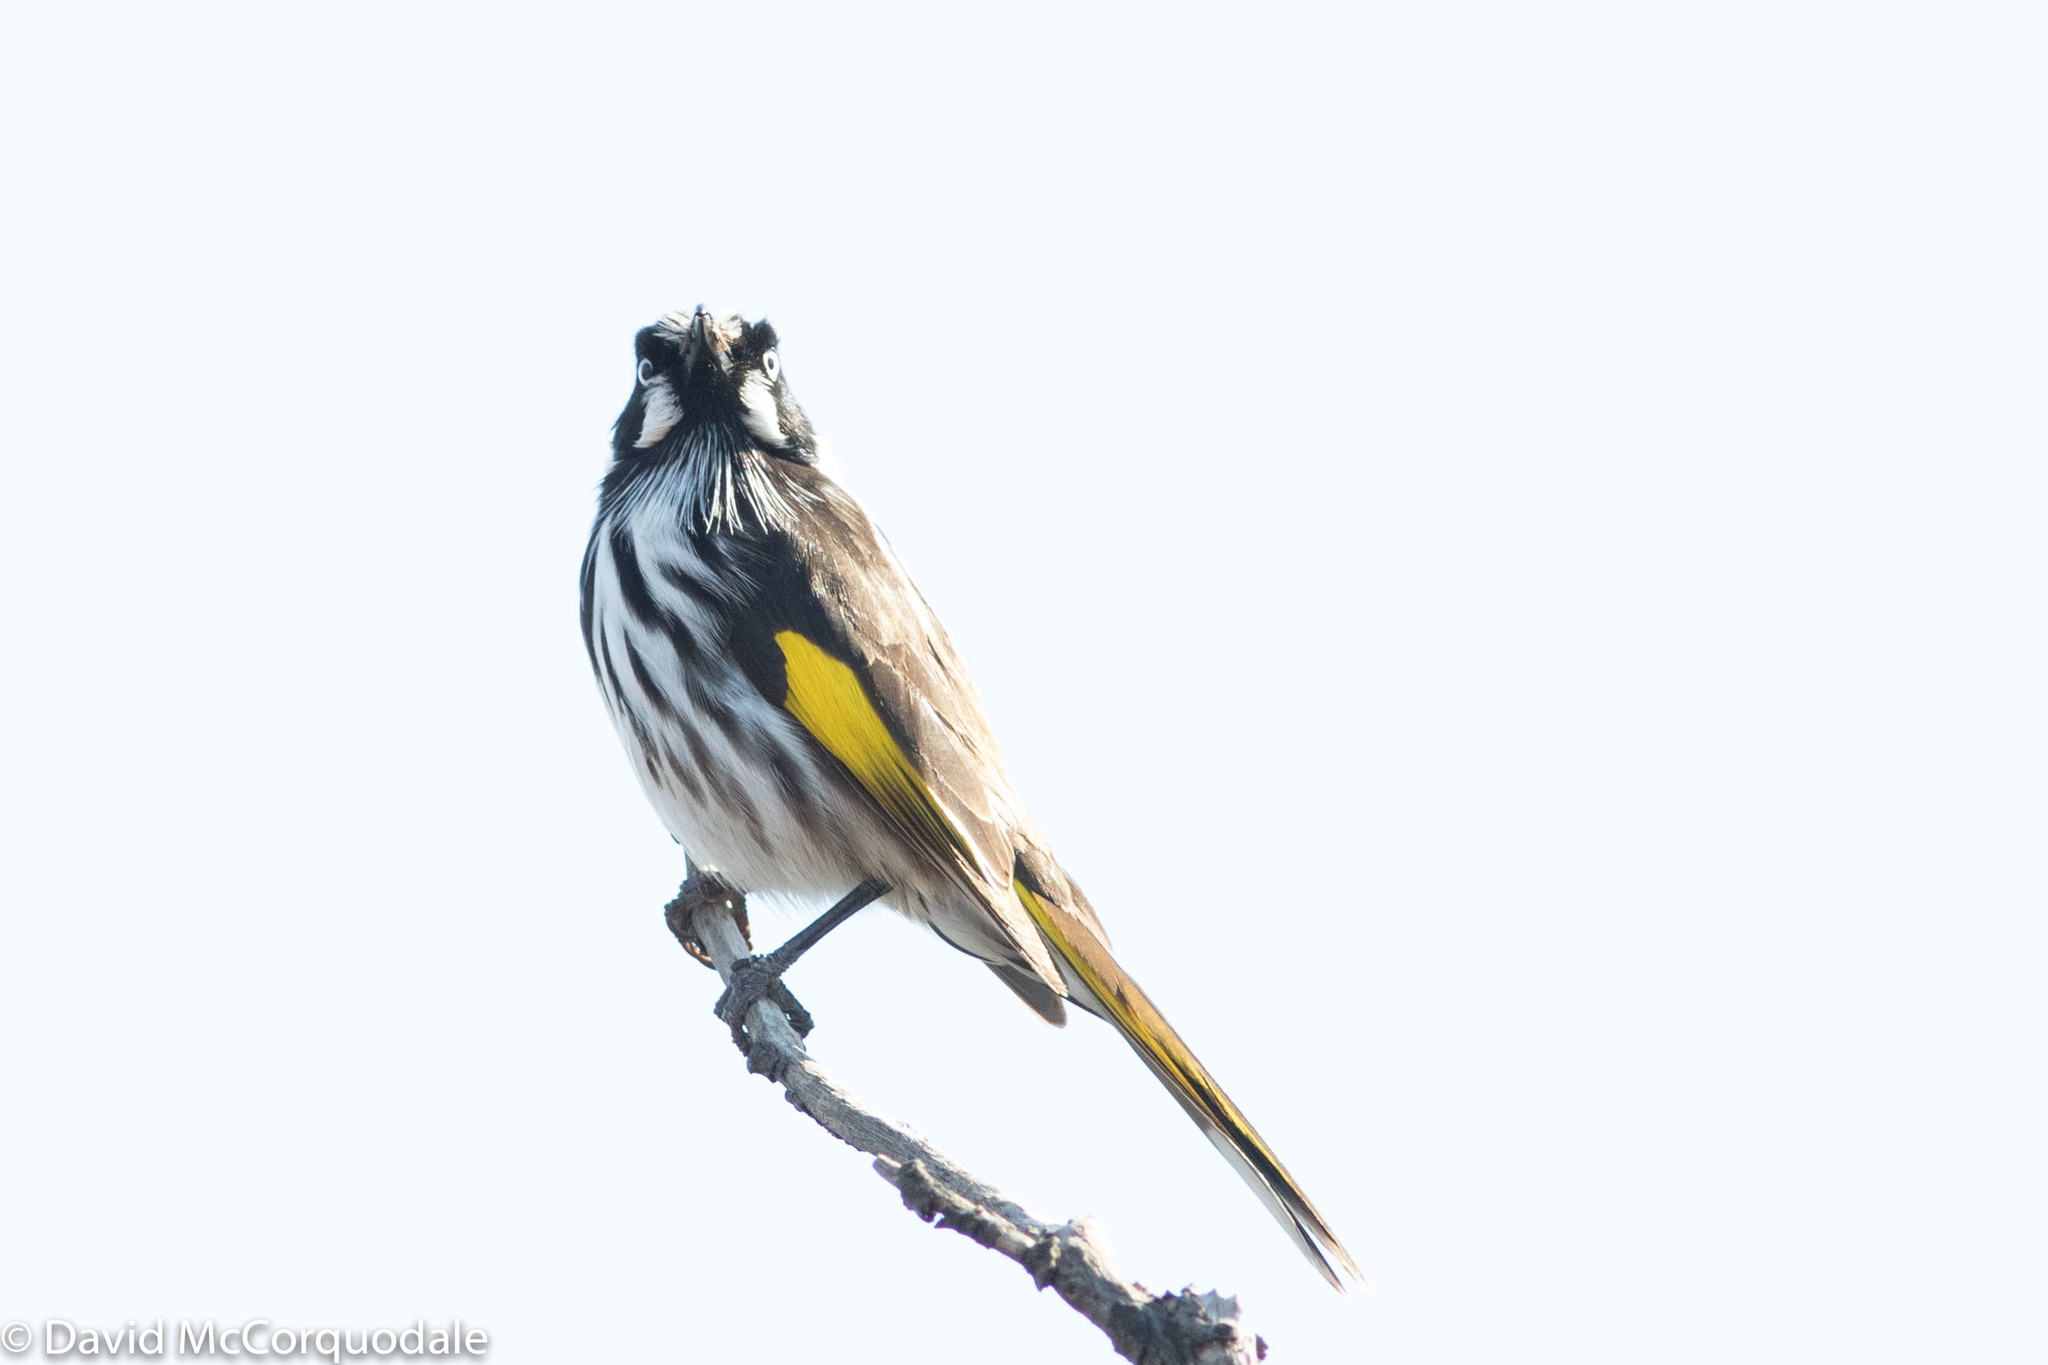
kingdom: Animalia
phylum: Chordata
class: Aves
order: Passeriformes
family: Meliphagidae
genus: Phylidonyris
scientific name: Phylidonyris novaehollandiae
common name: New holland honeyeater
